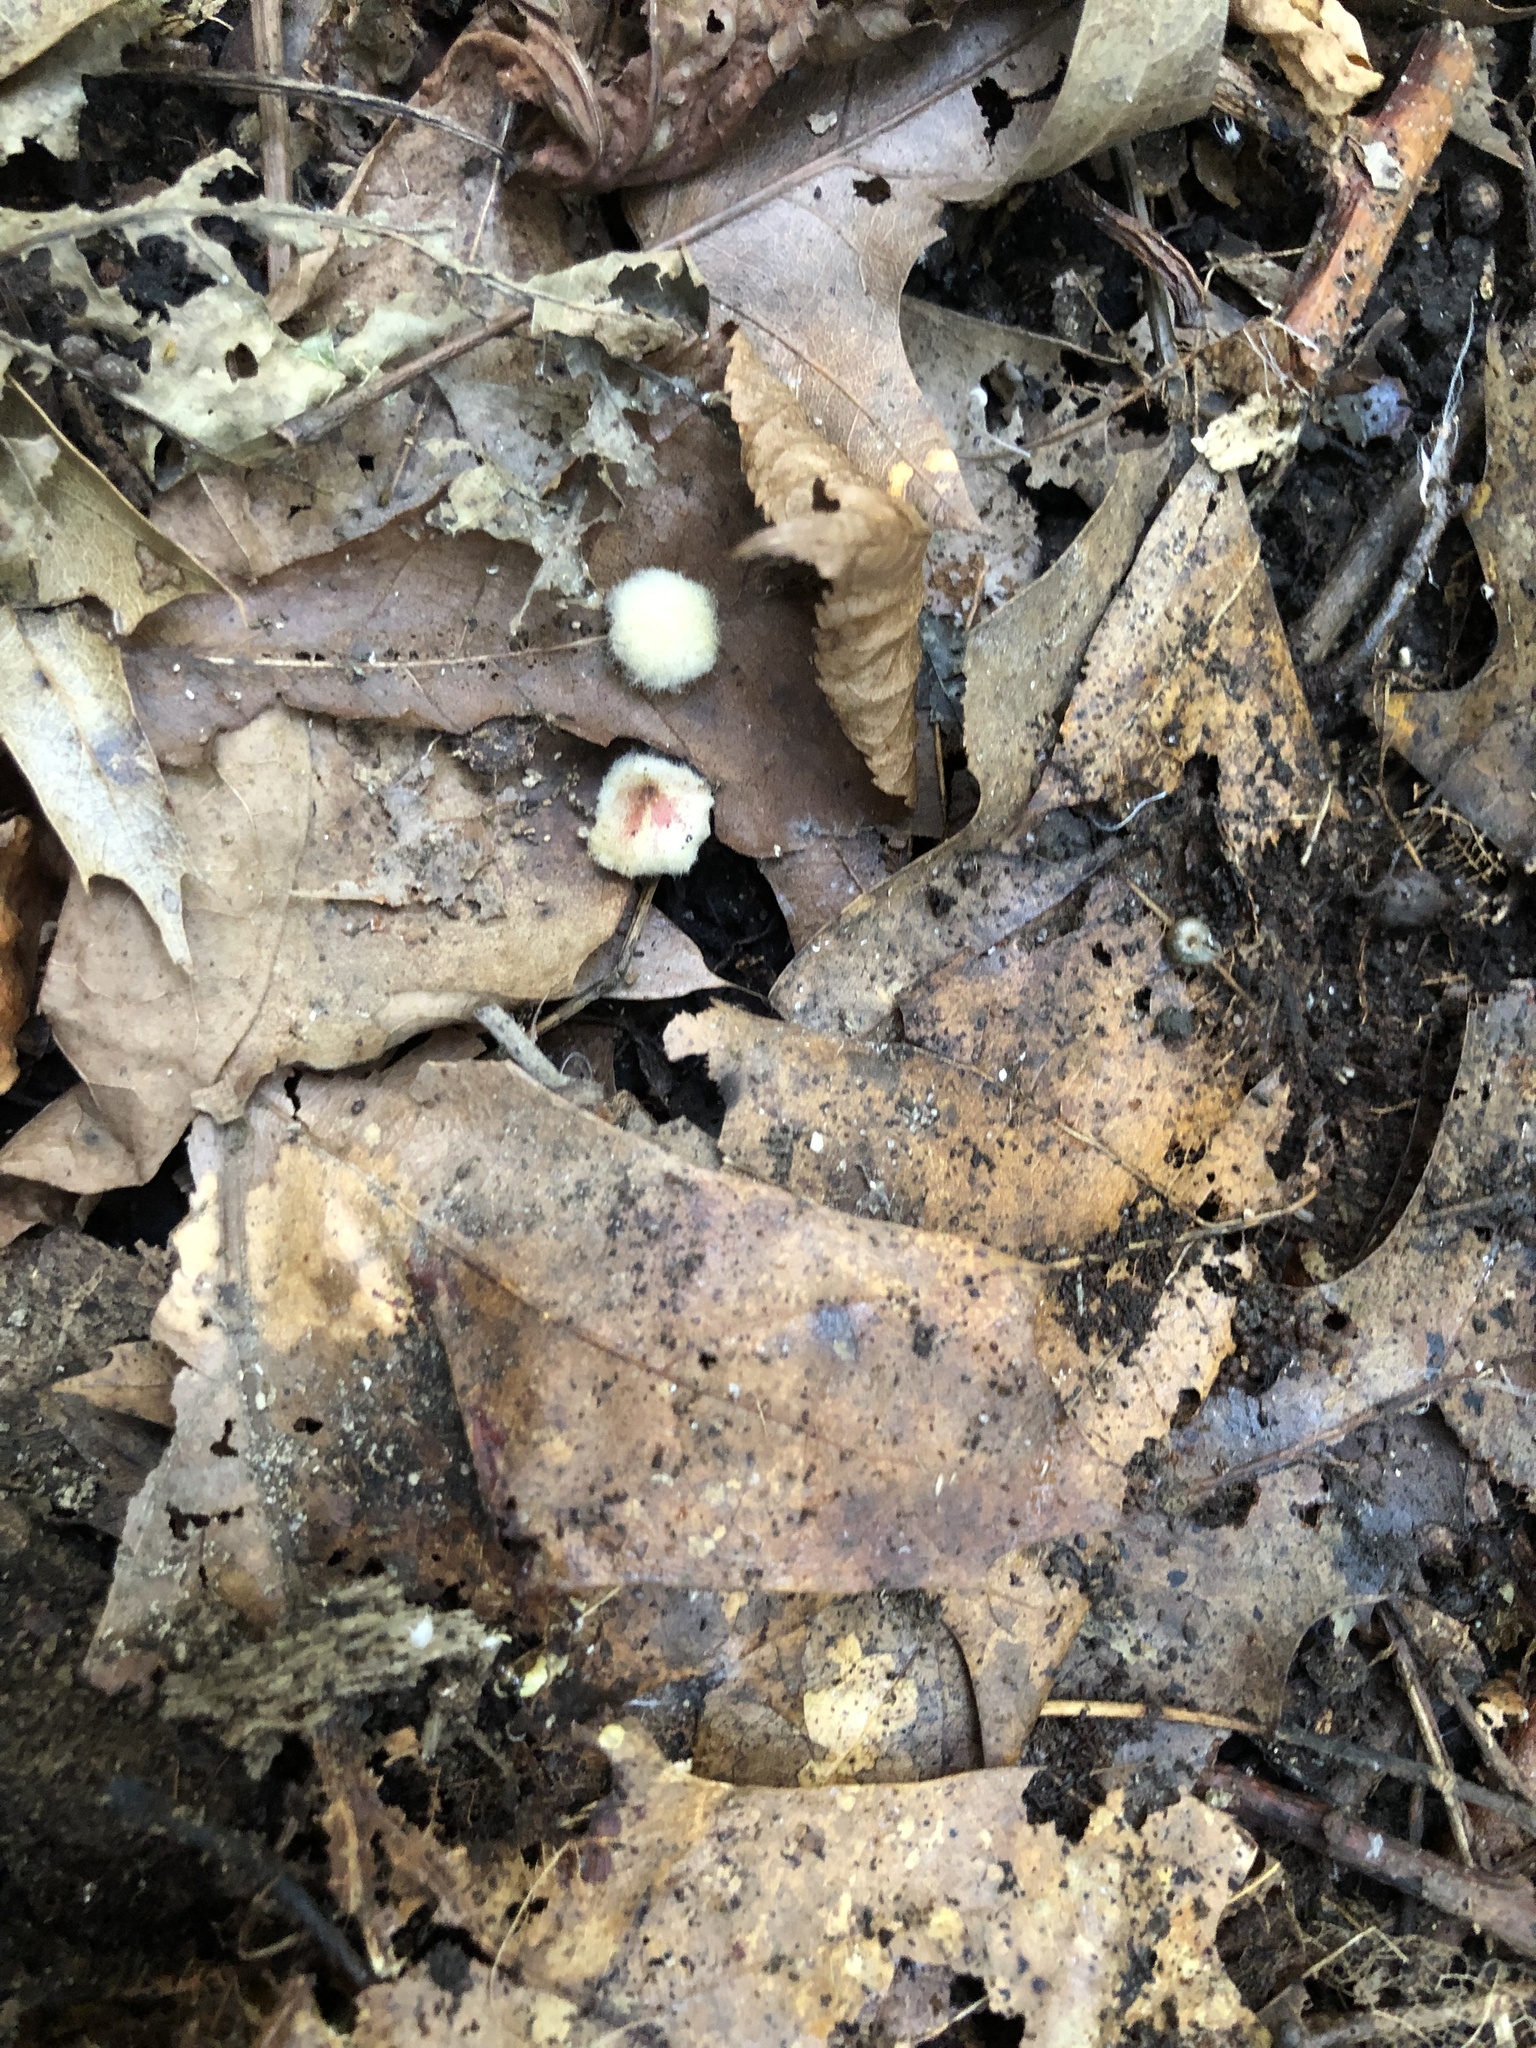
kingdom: Animalia
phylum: Arthropoda
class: Insecta
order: Hymenoptera
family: Cynipidae
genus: Callirhytis
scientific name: Callirhytis
